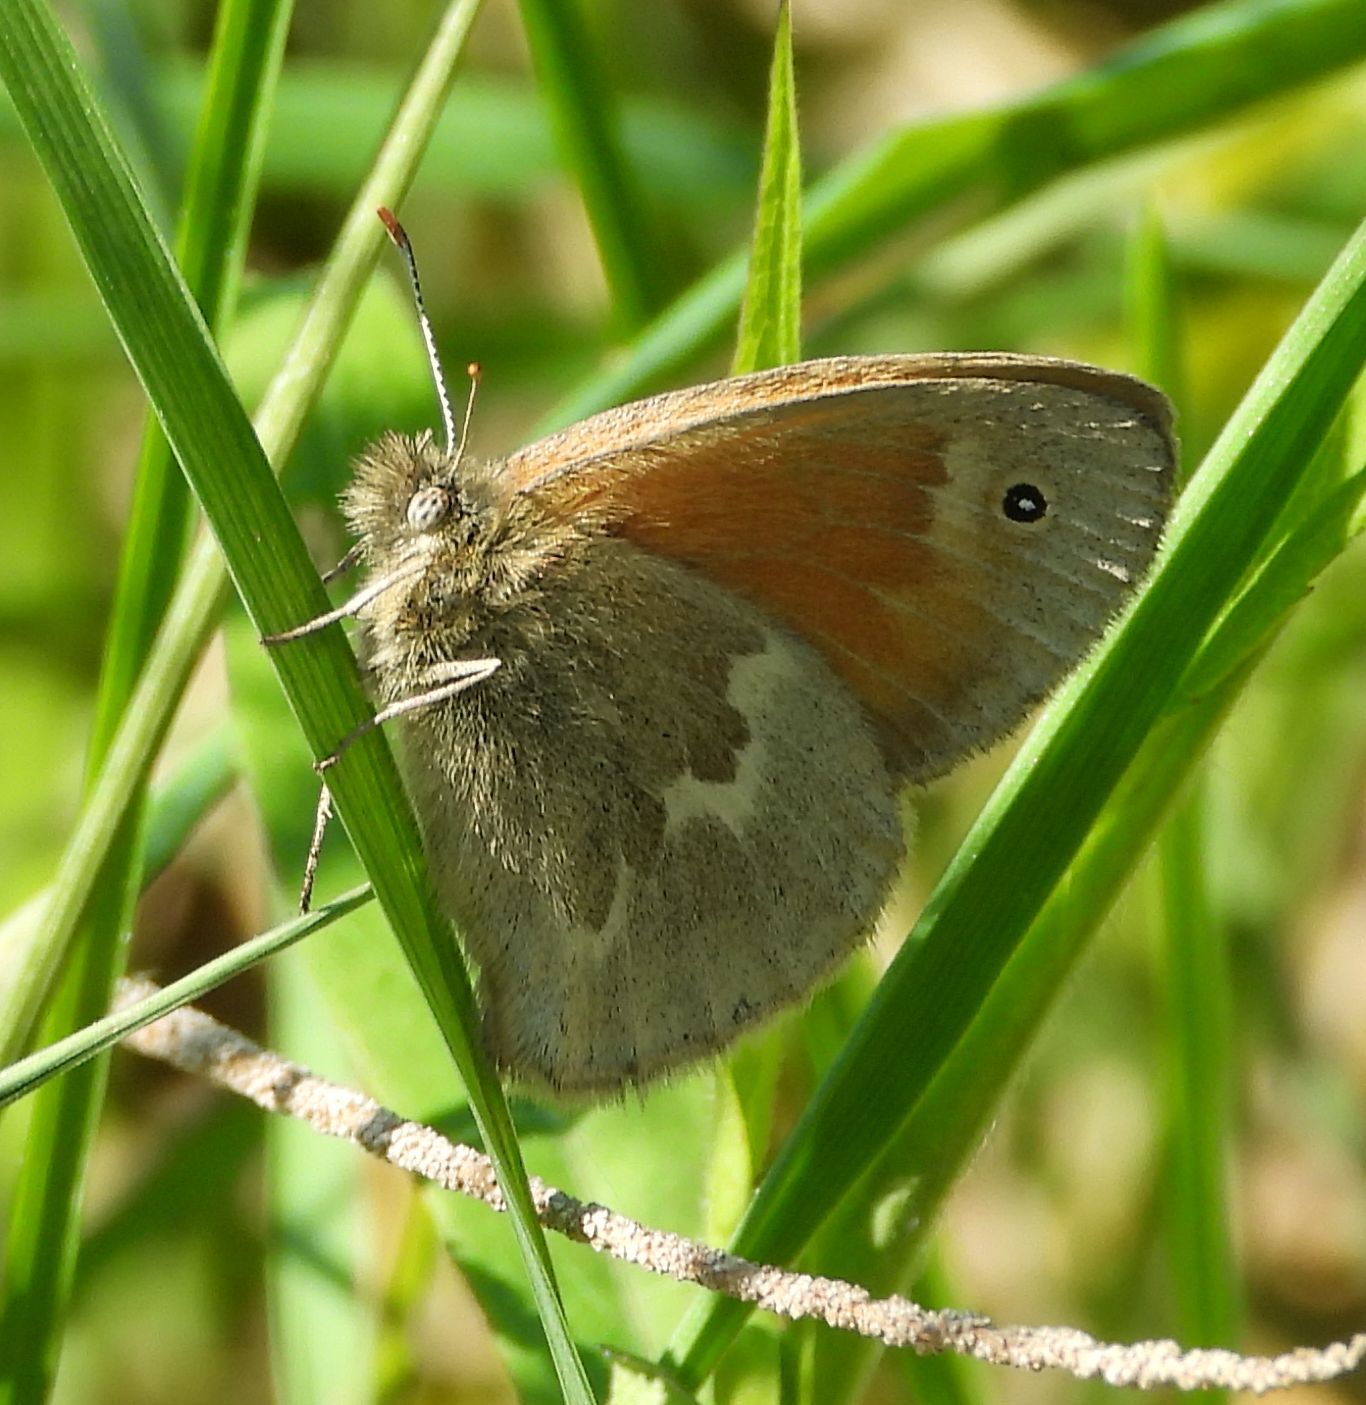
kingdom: Animalia
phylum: Arthropoda
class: Insecta
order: Lepidoptera
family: Nymphalidae
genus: Coenonympha
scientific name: Coenonympha california
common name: Common ringlet
